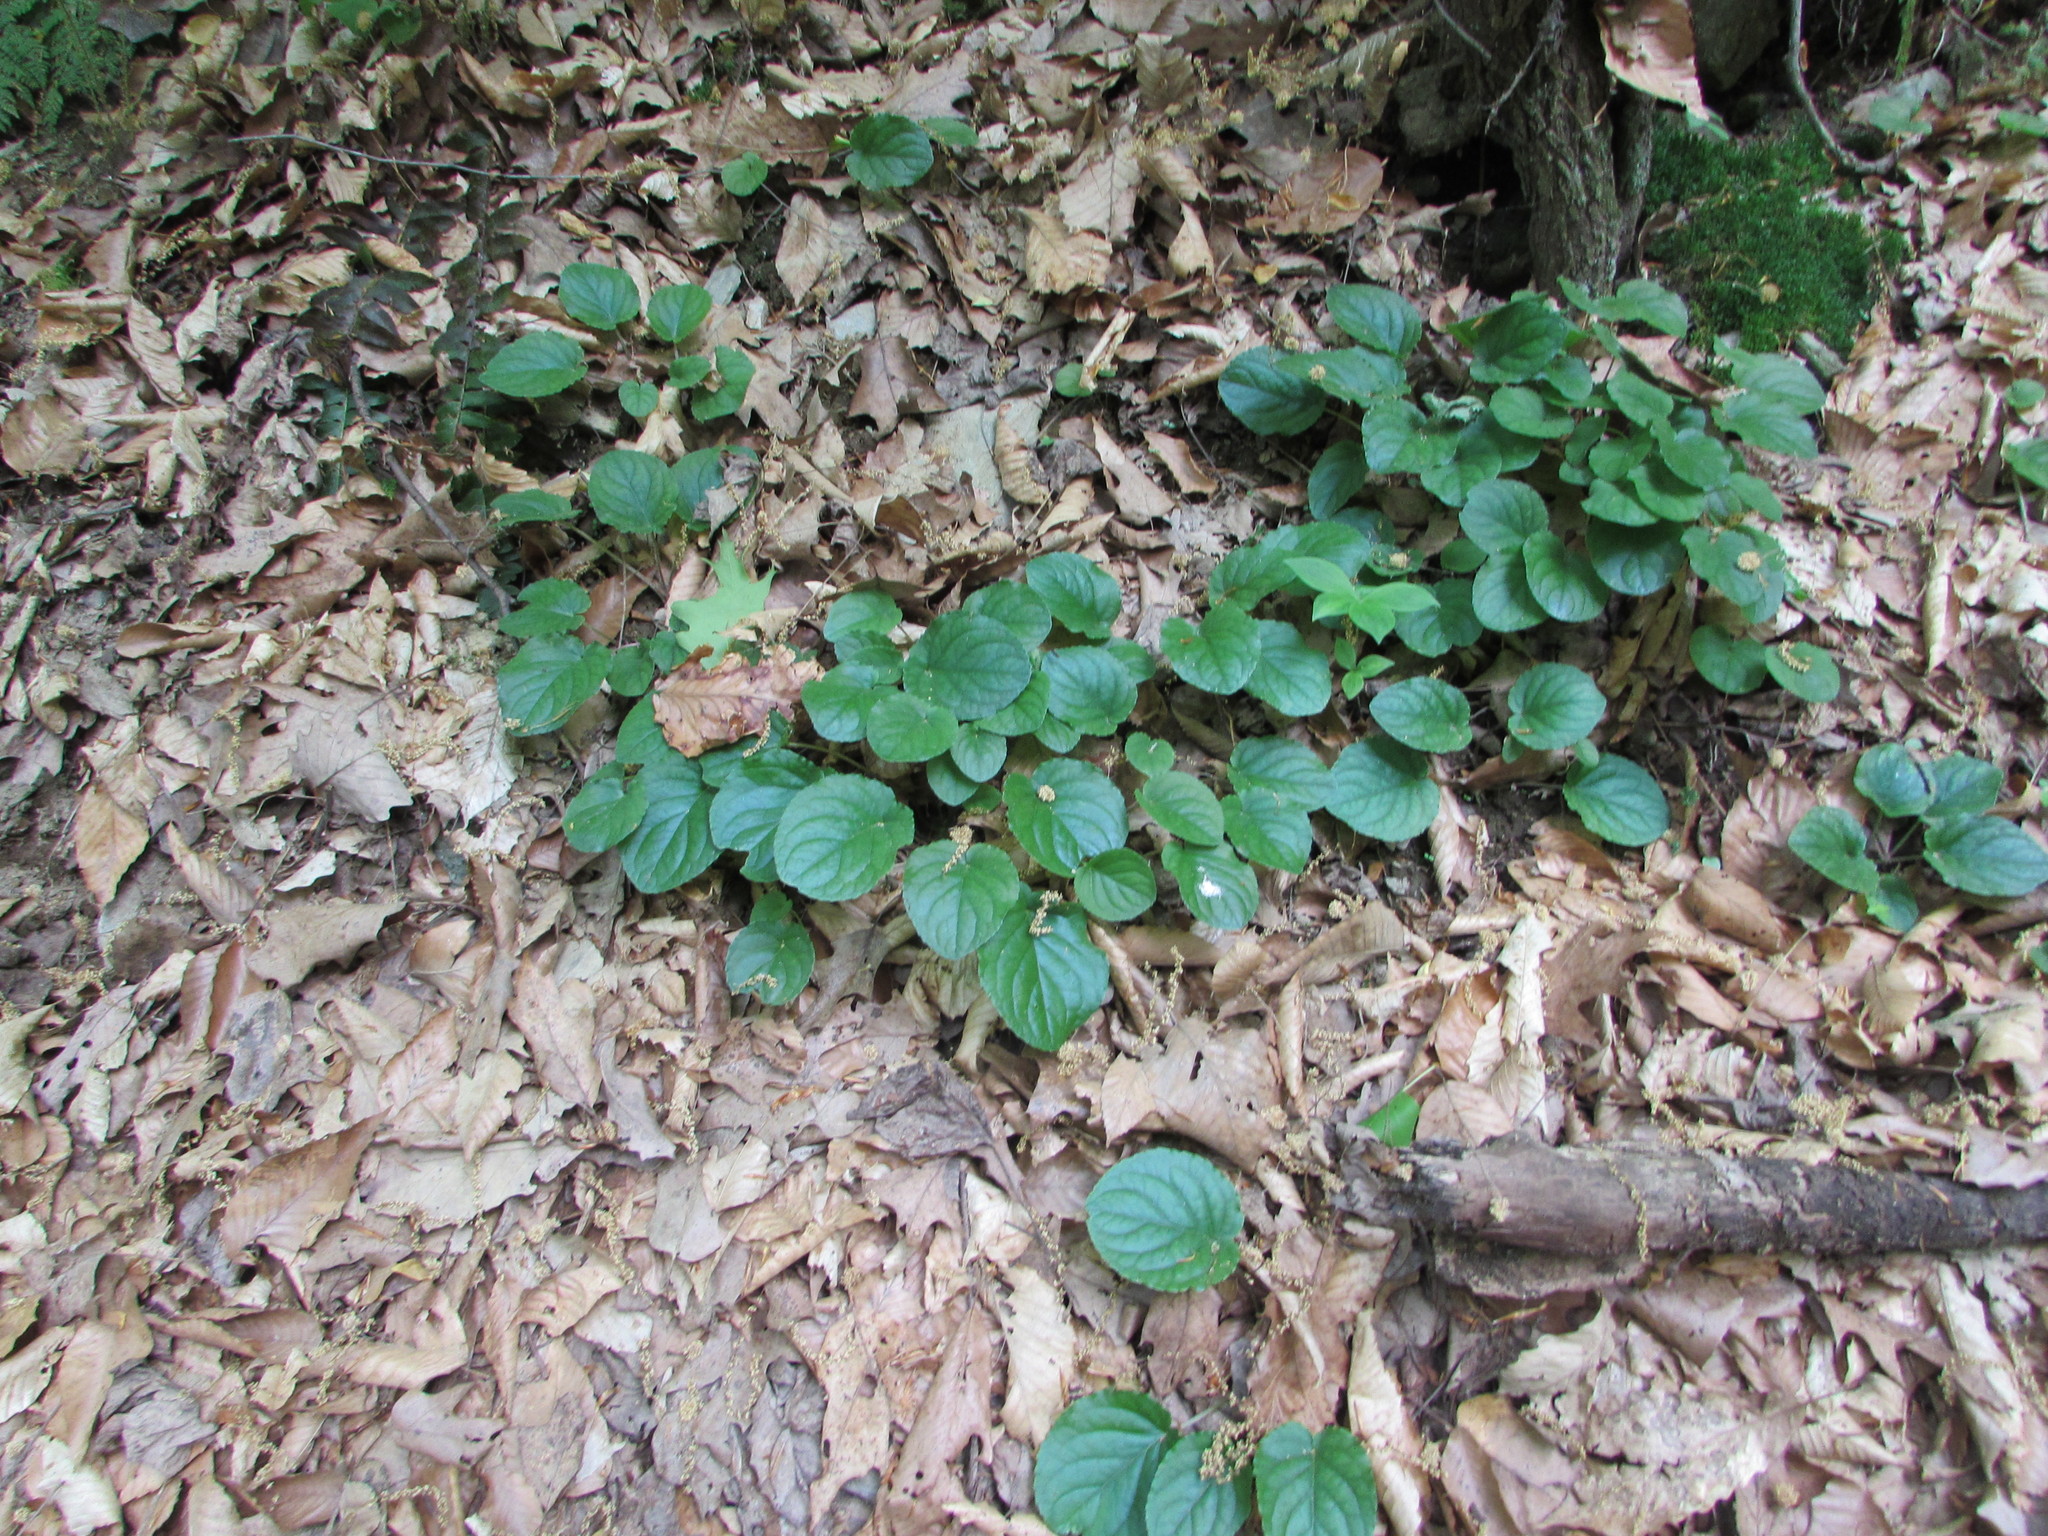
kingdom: Plantae
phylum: Tracheophyta
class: Magnoliopsida
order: Malpighiales
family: Violaceae
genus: Viola
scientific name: Viola rotundifolia
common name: Early yellow violet
